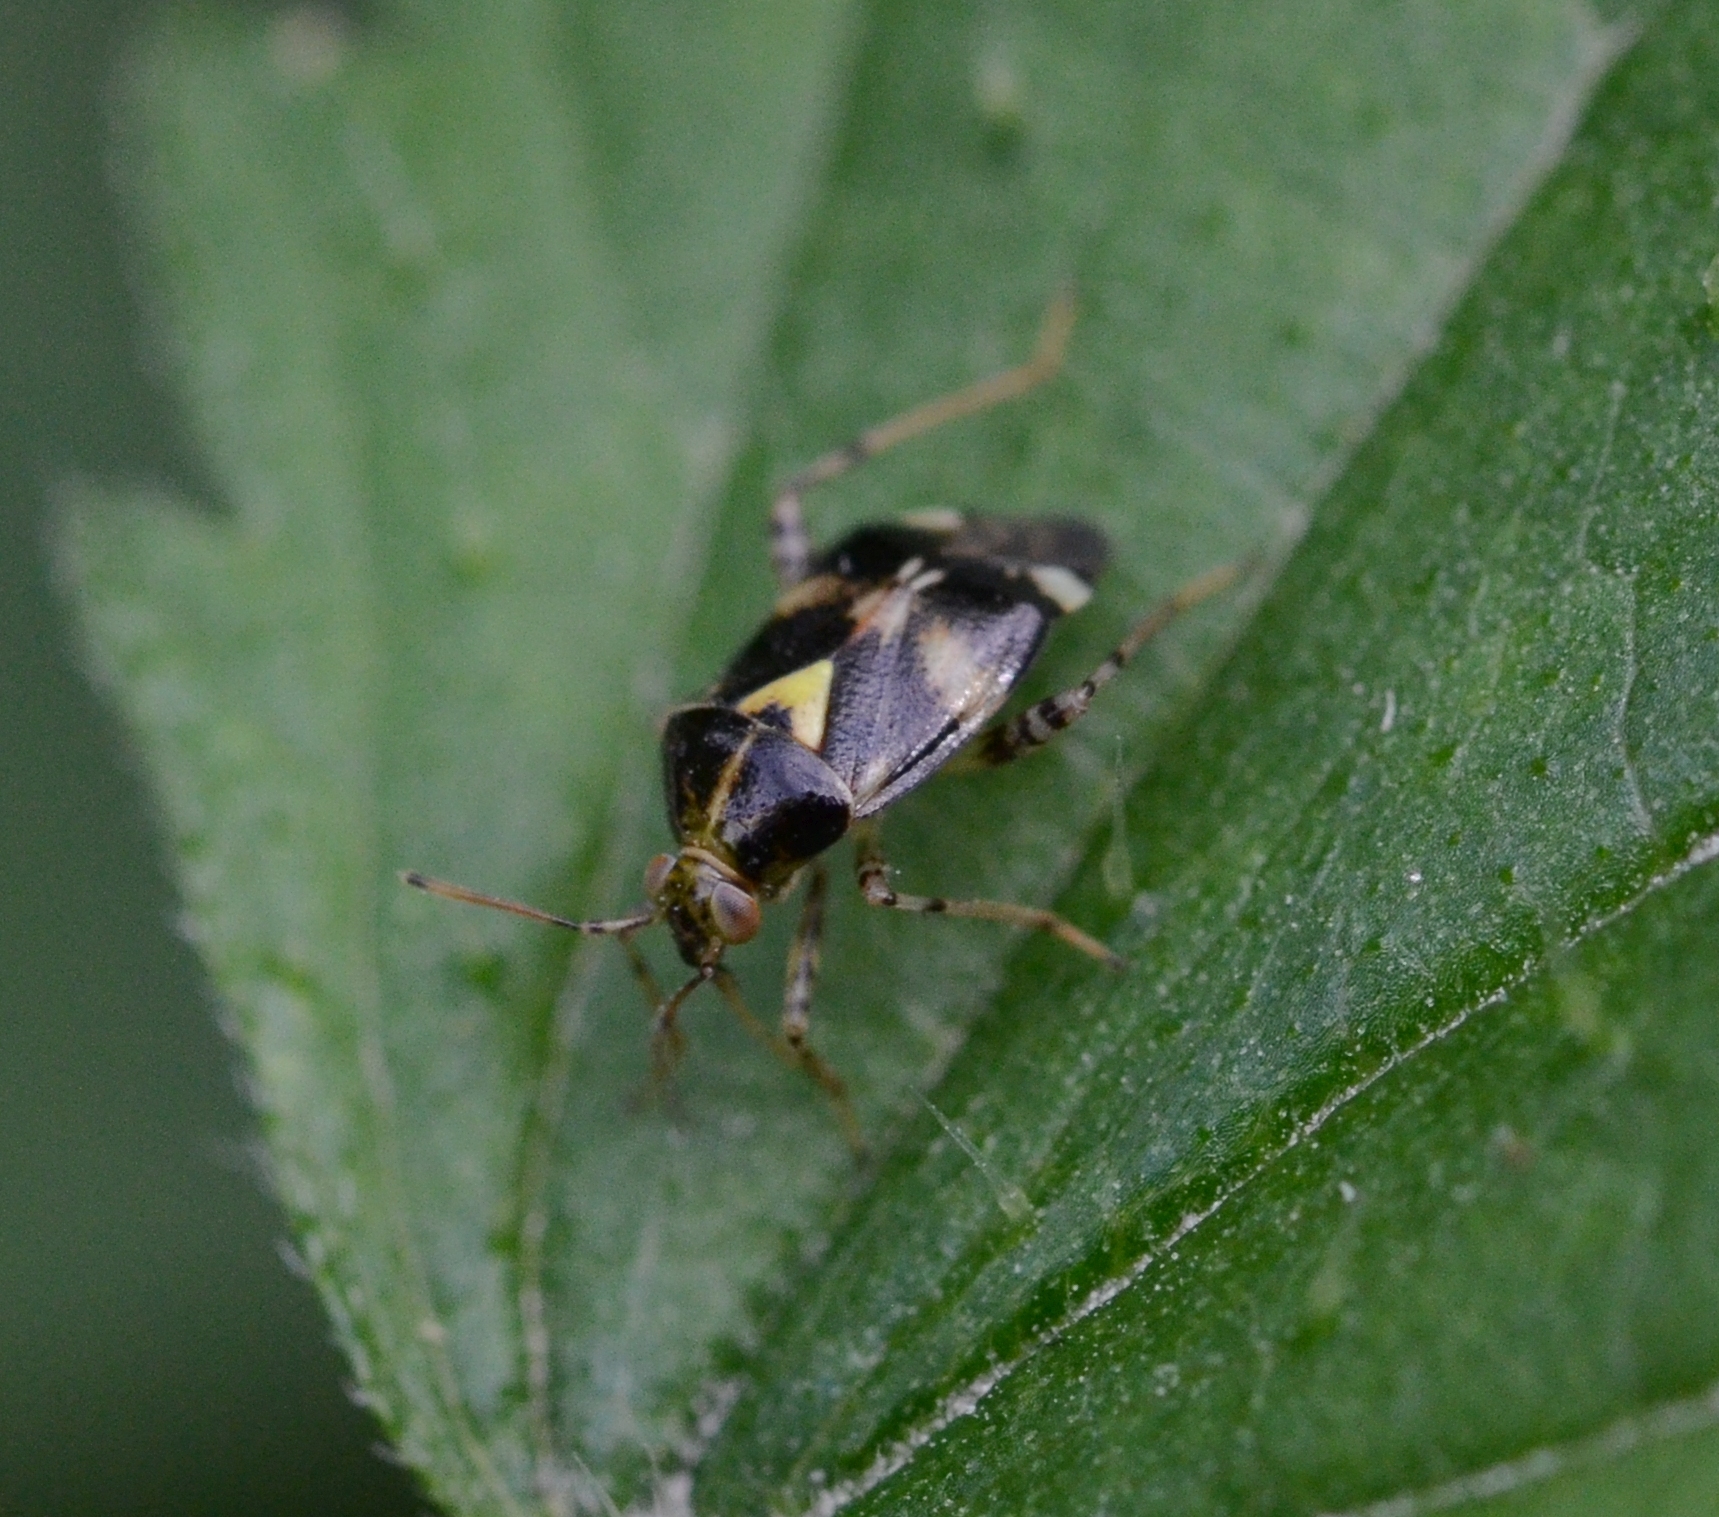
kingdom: Animalia
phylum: Arthropoda
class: Insecta
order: Hemiptera
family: Miridae
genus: Liocoris
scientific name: Liocoris tripustulatus
